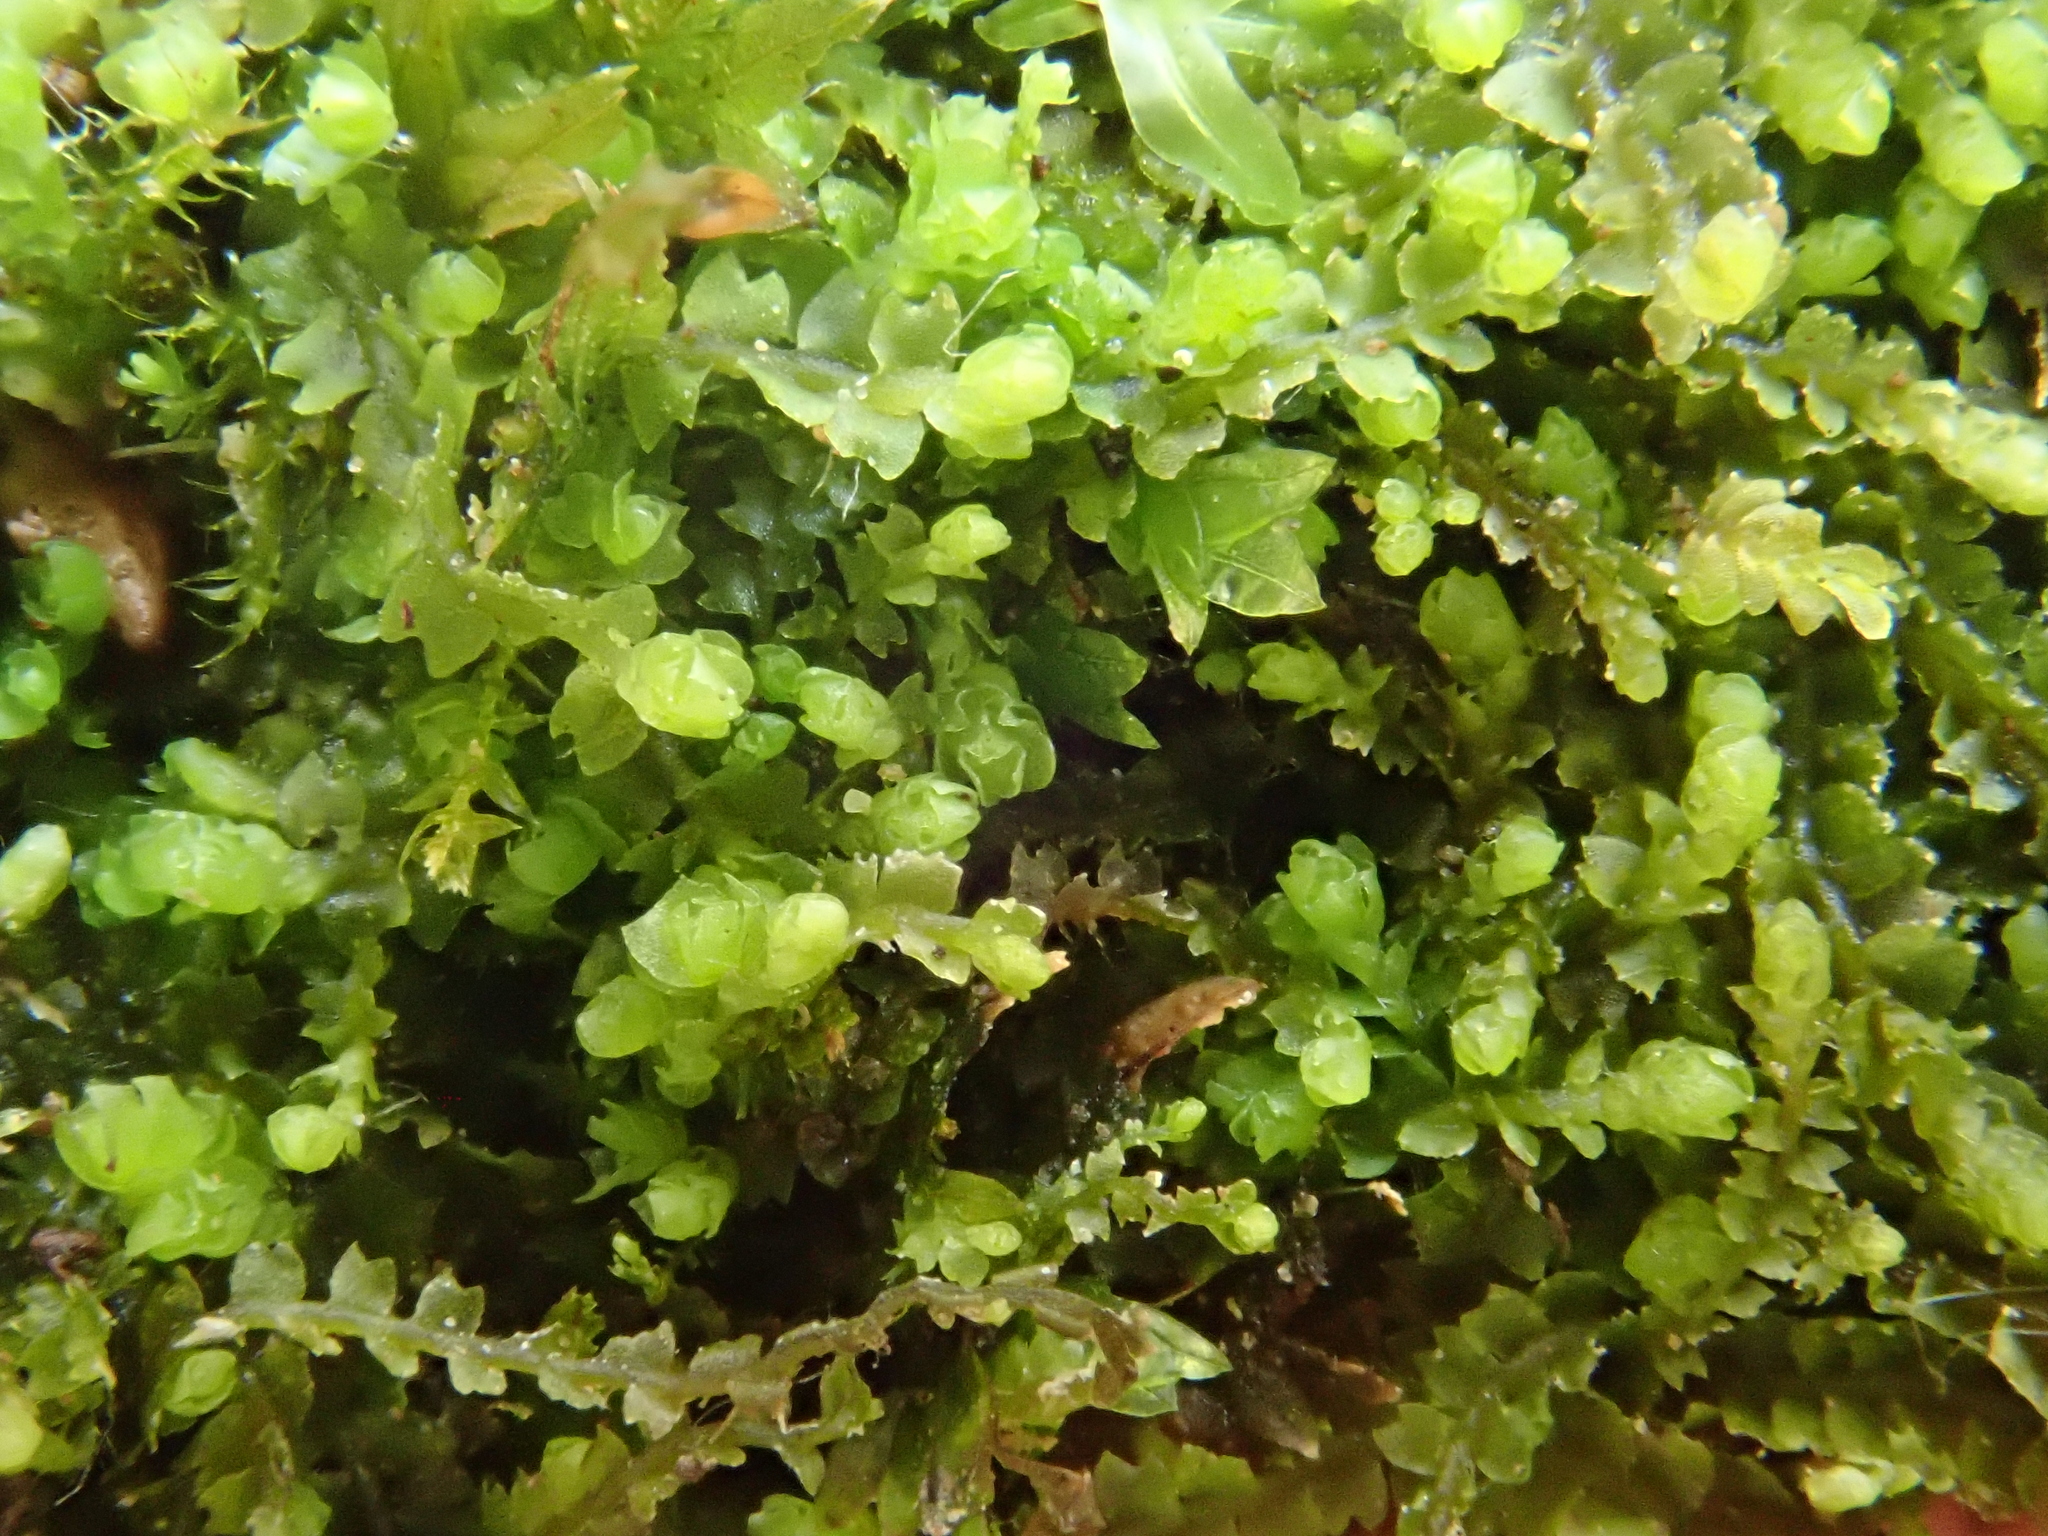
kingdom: Plantae
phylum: Marchantiophyta
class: Jungermanniopsida
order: Jungermanniales
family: Jungermanniaceae
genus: Mesoptychia
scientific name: Mesoptychia collaris
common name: Collared notchwort
